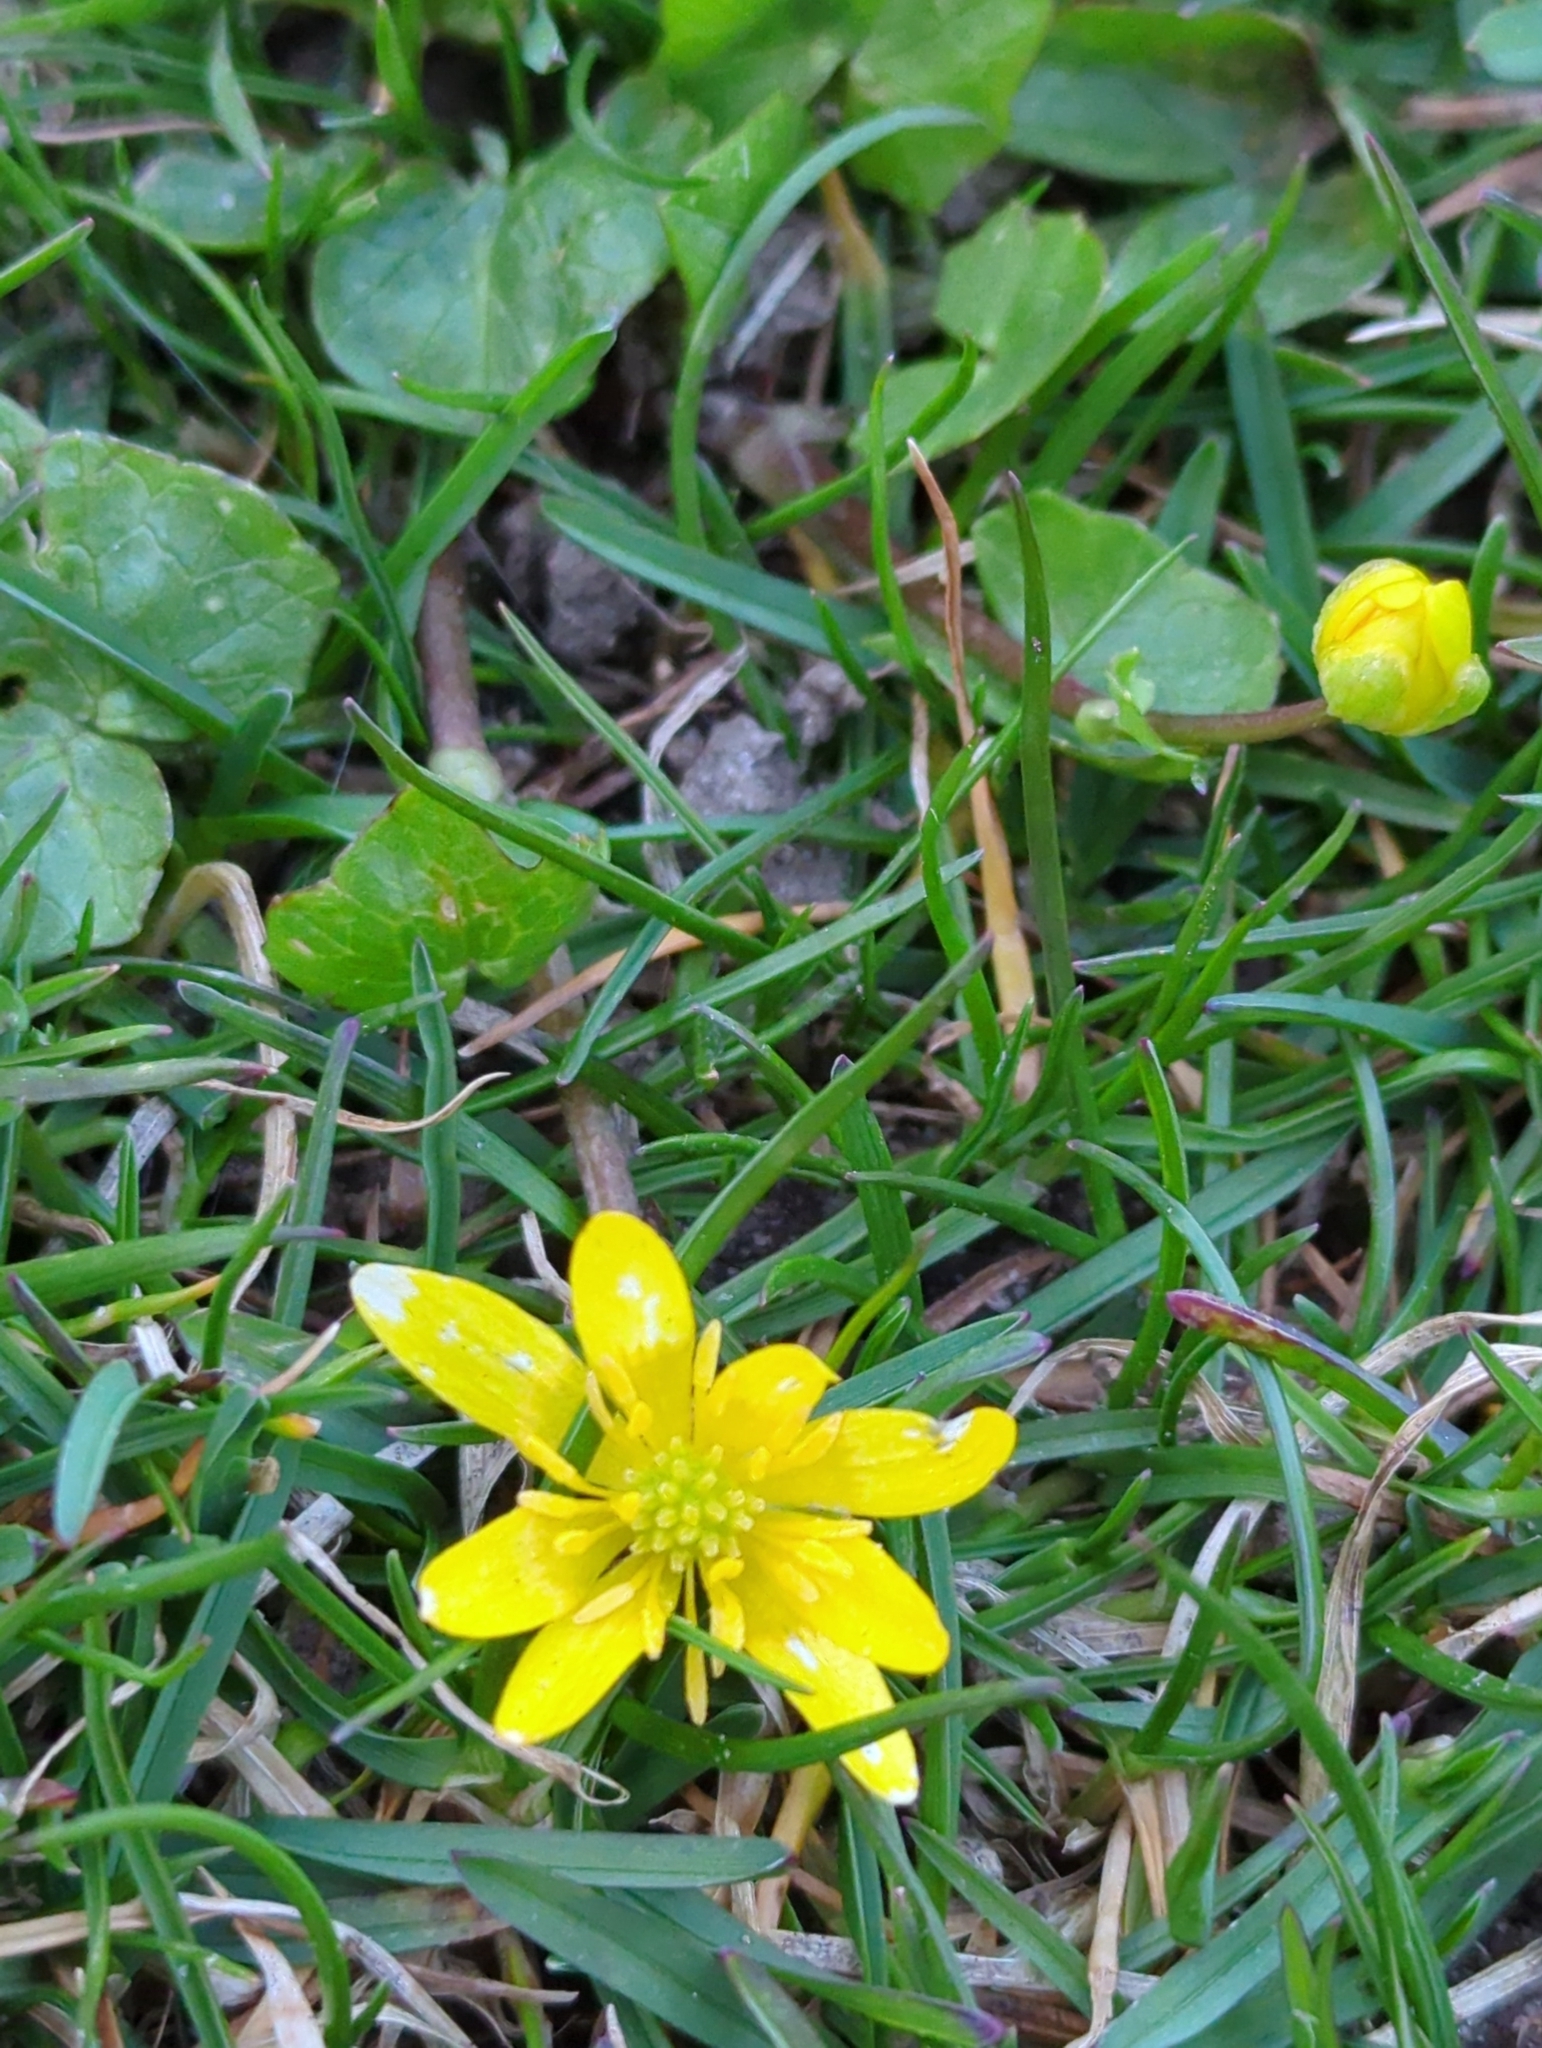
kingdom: Plantae
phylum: Tracheophyta
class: Magnoliopsida
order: Ranunculales
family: Ranunculaceae
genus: Ficaria
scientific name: Ficaria verna
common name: Lesser celandine
